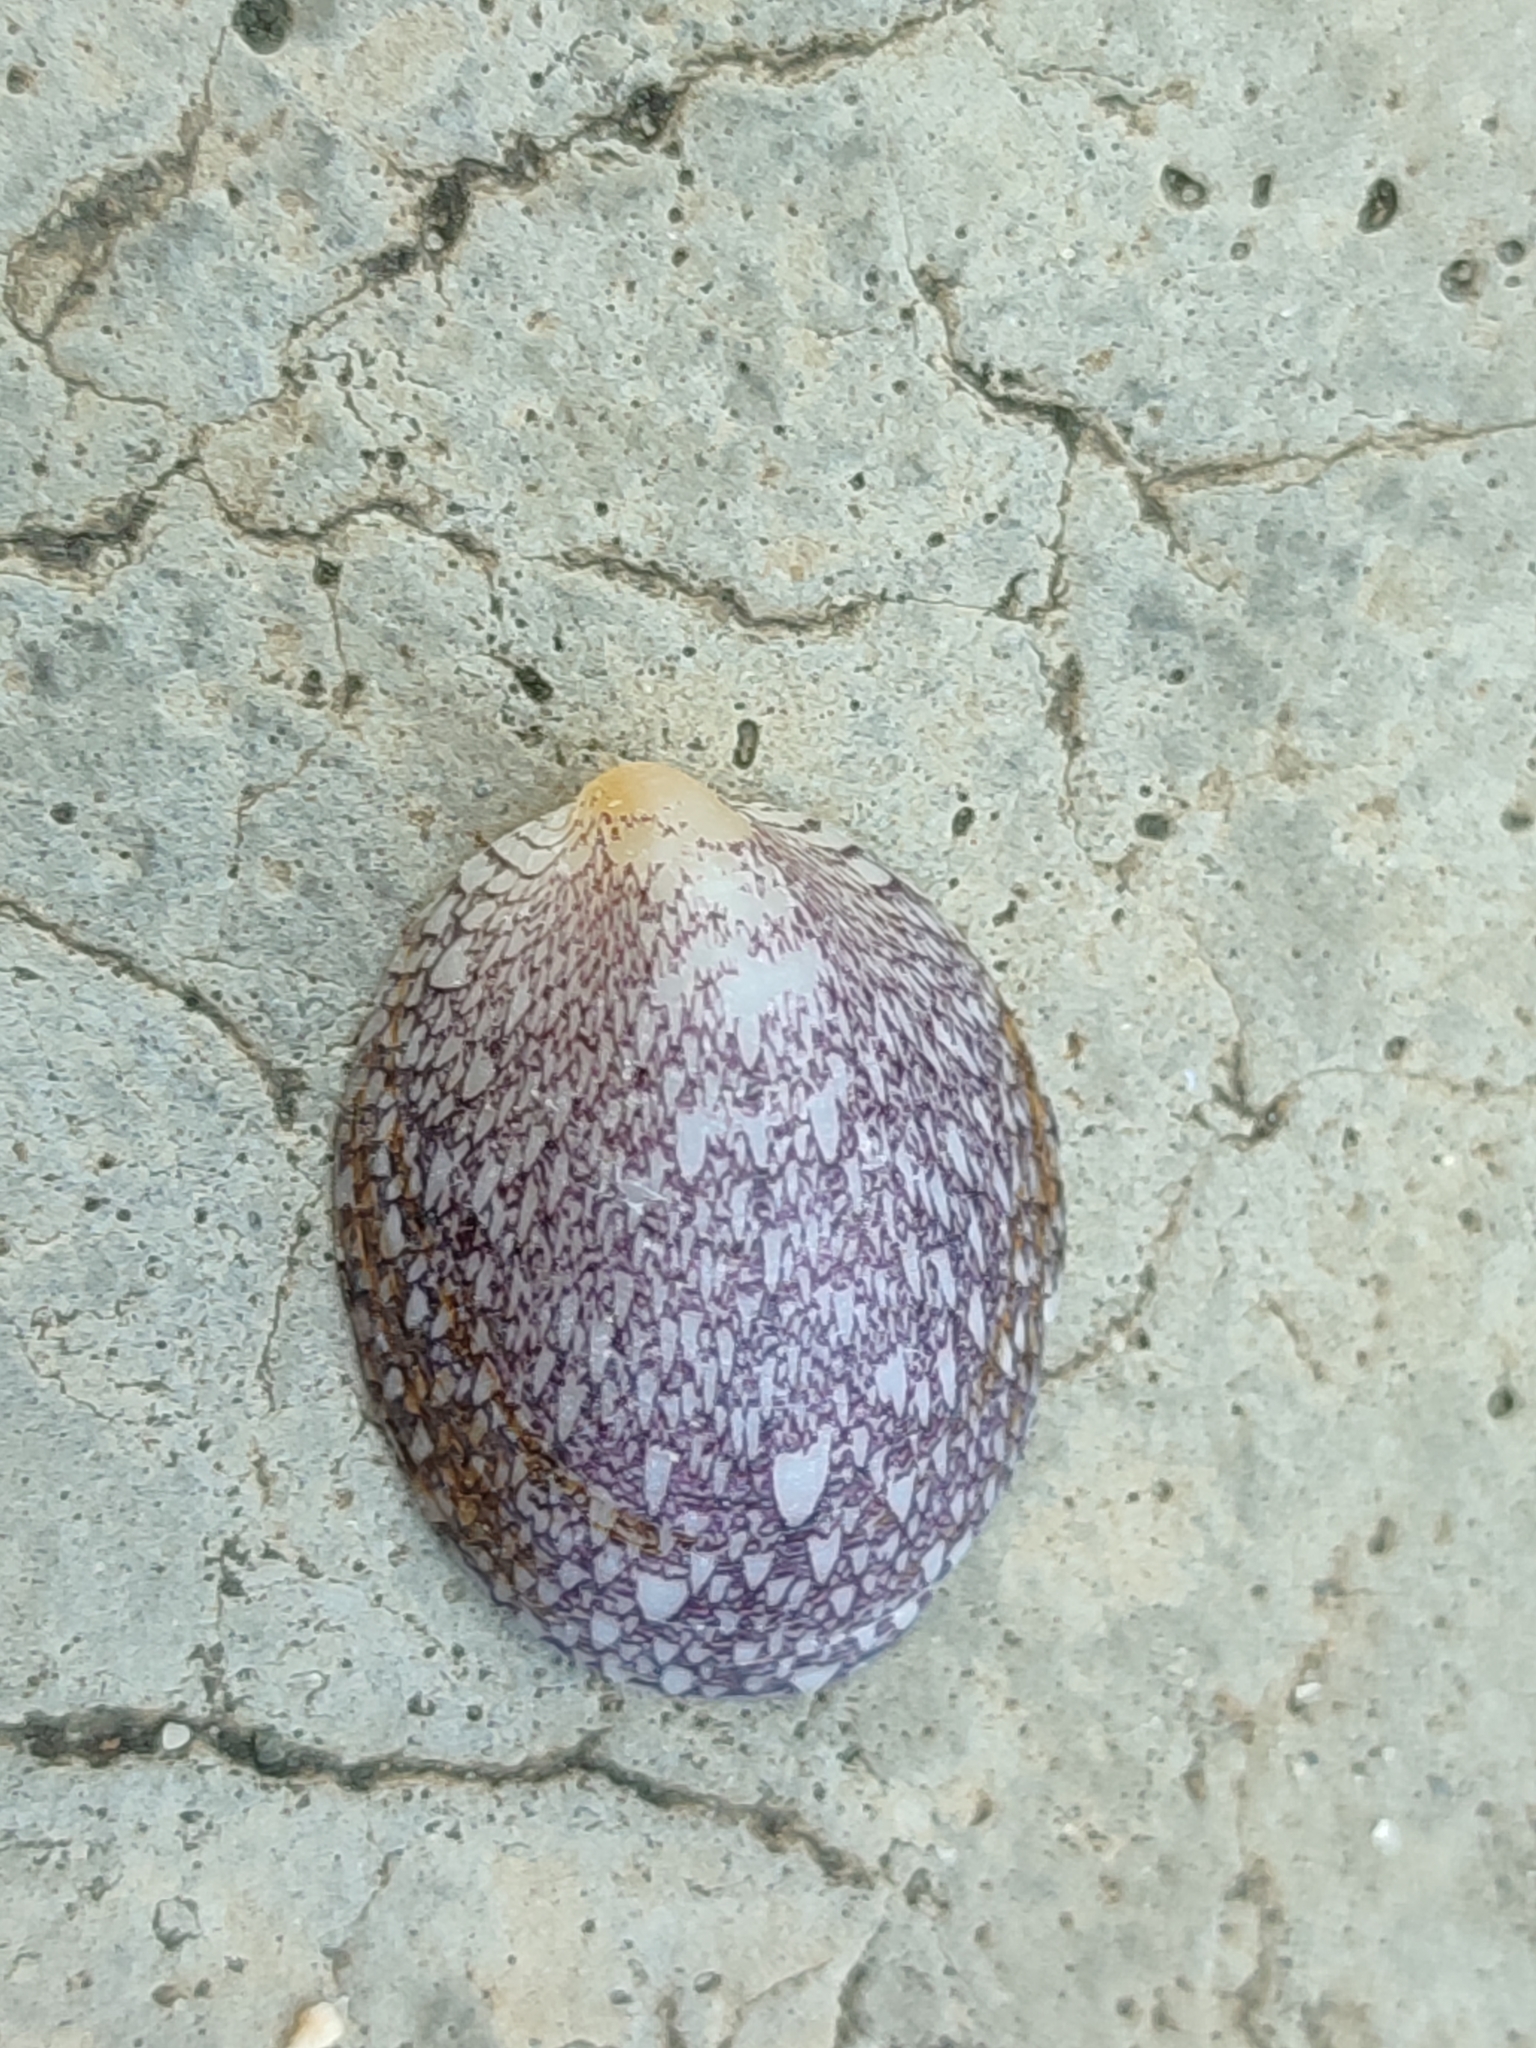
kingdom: Animalia
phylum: Mollusca
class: Gastropoda
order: Cycloneritida
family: Neritidae
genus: Septaria
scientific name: Septaria porcellana
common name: Abalone snail
